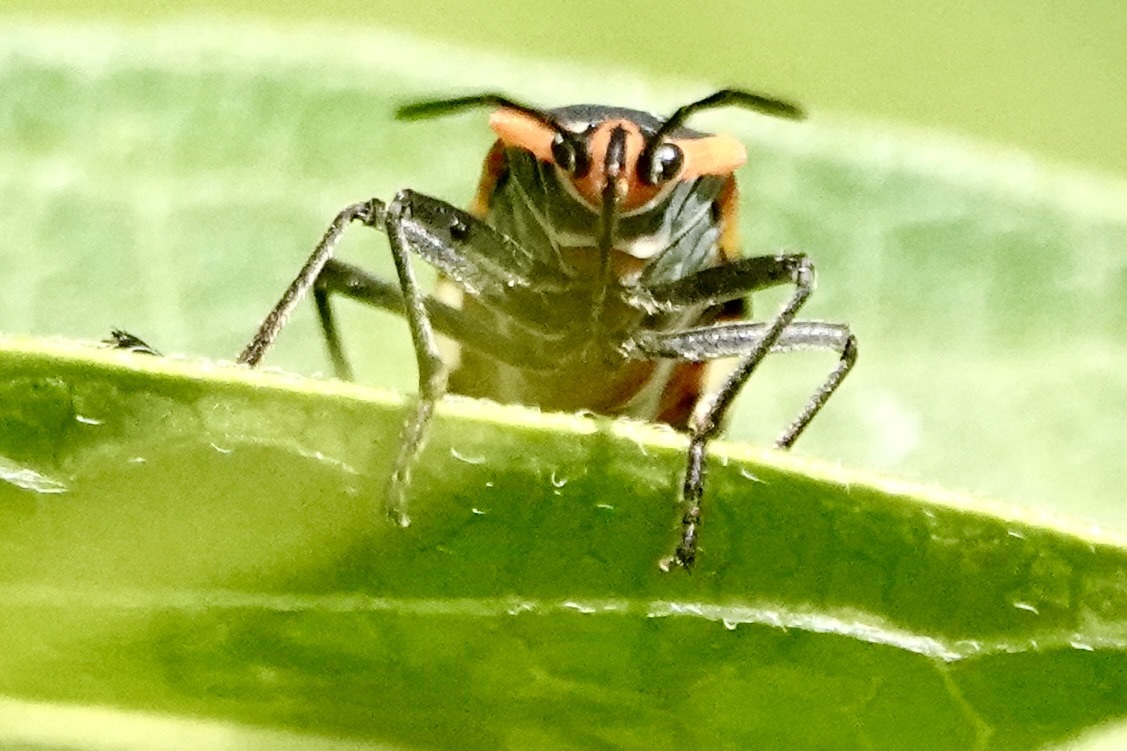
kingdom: Animalia
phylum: Arthropoda
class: Insecta
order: Hemiptera
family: Lygaeidae
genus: Oncopeltus
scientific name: Oncopeltus fasciatus
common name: Large milkweed bug
